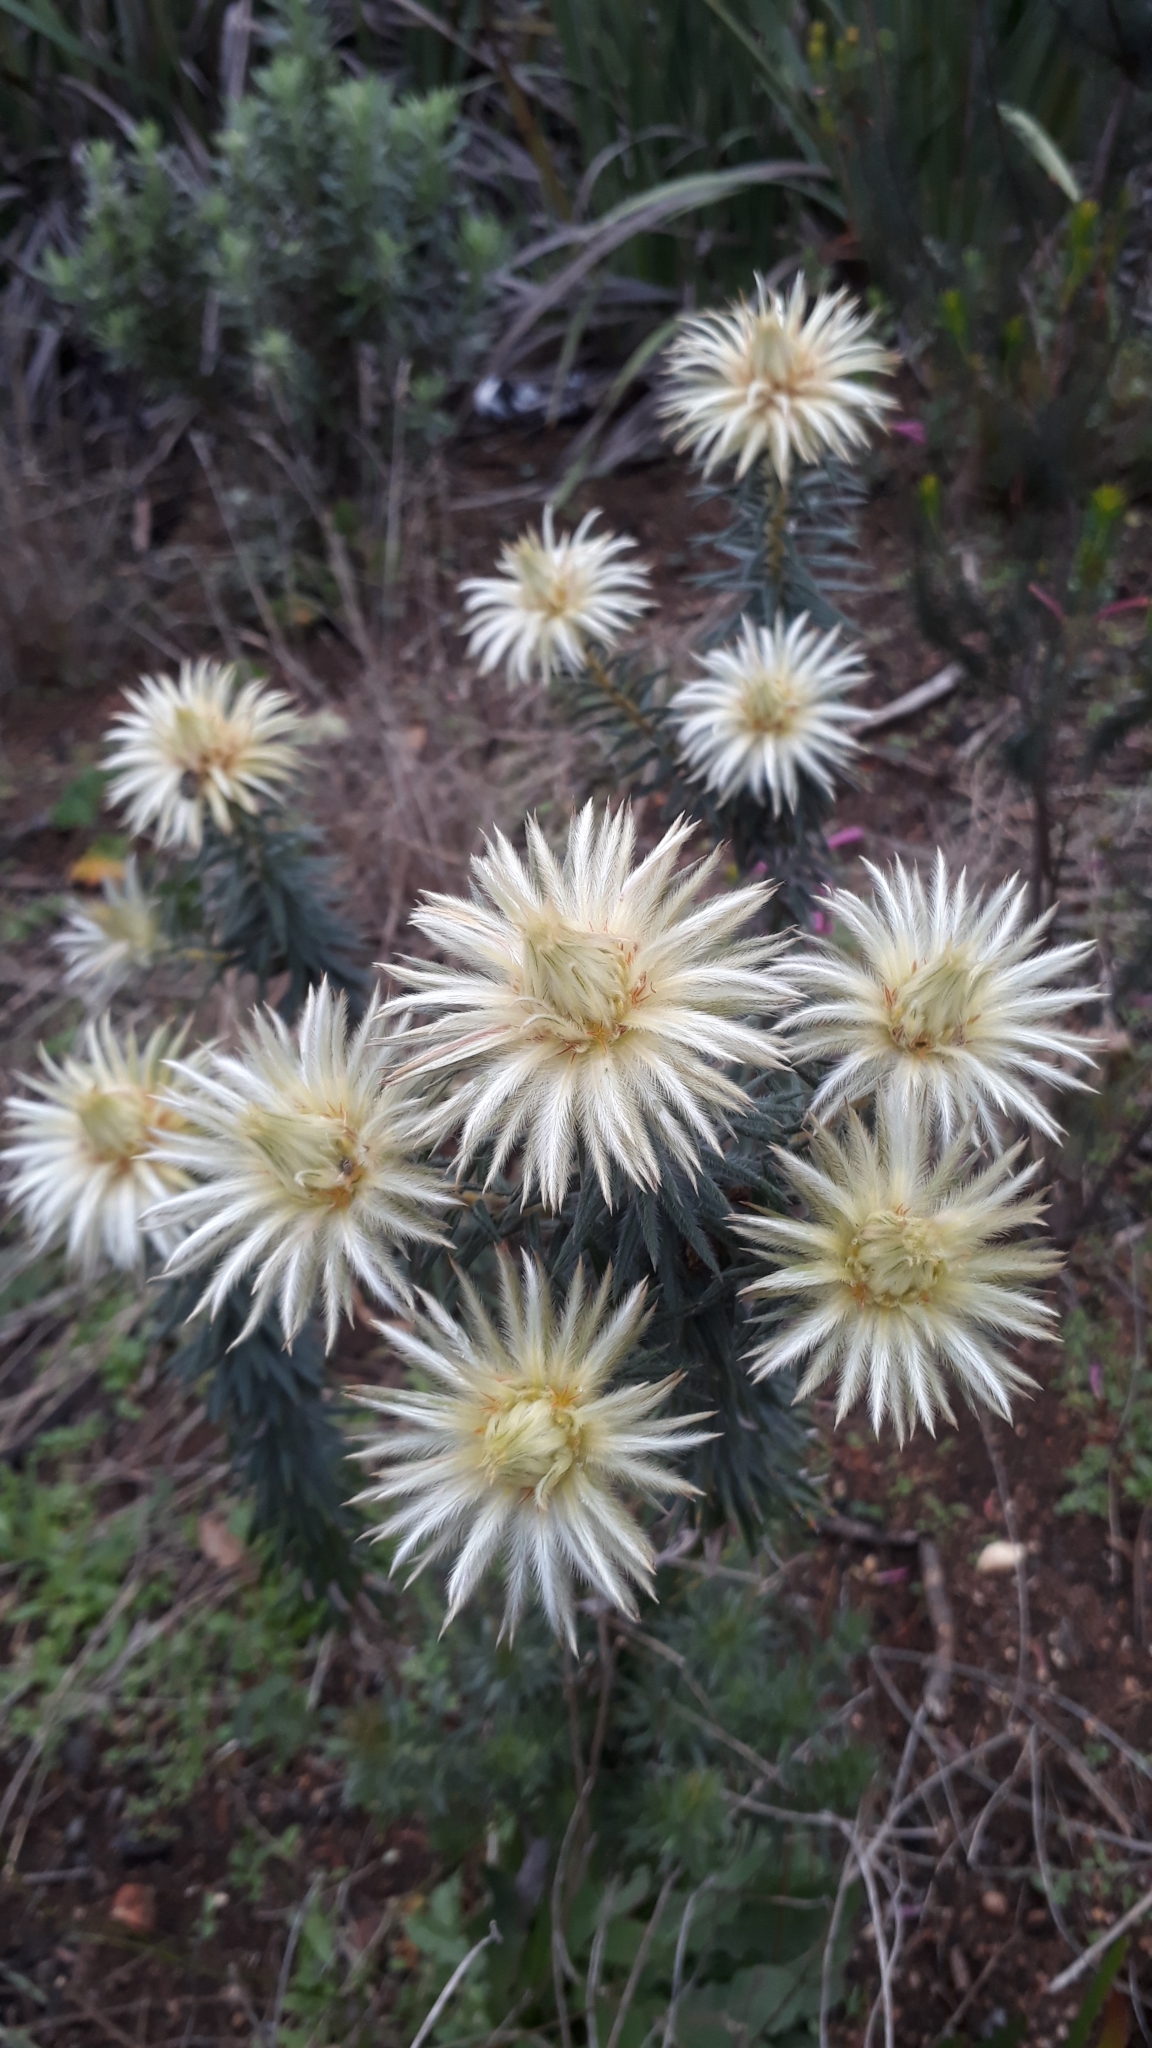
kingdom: Plantae
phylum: Tracheophyta
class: Magnoliopsida
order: Rosales
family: Rhamnaceae
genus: Phylica
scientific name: Phylica plumosa
